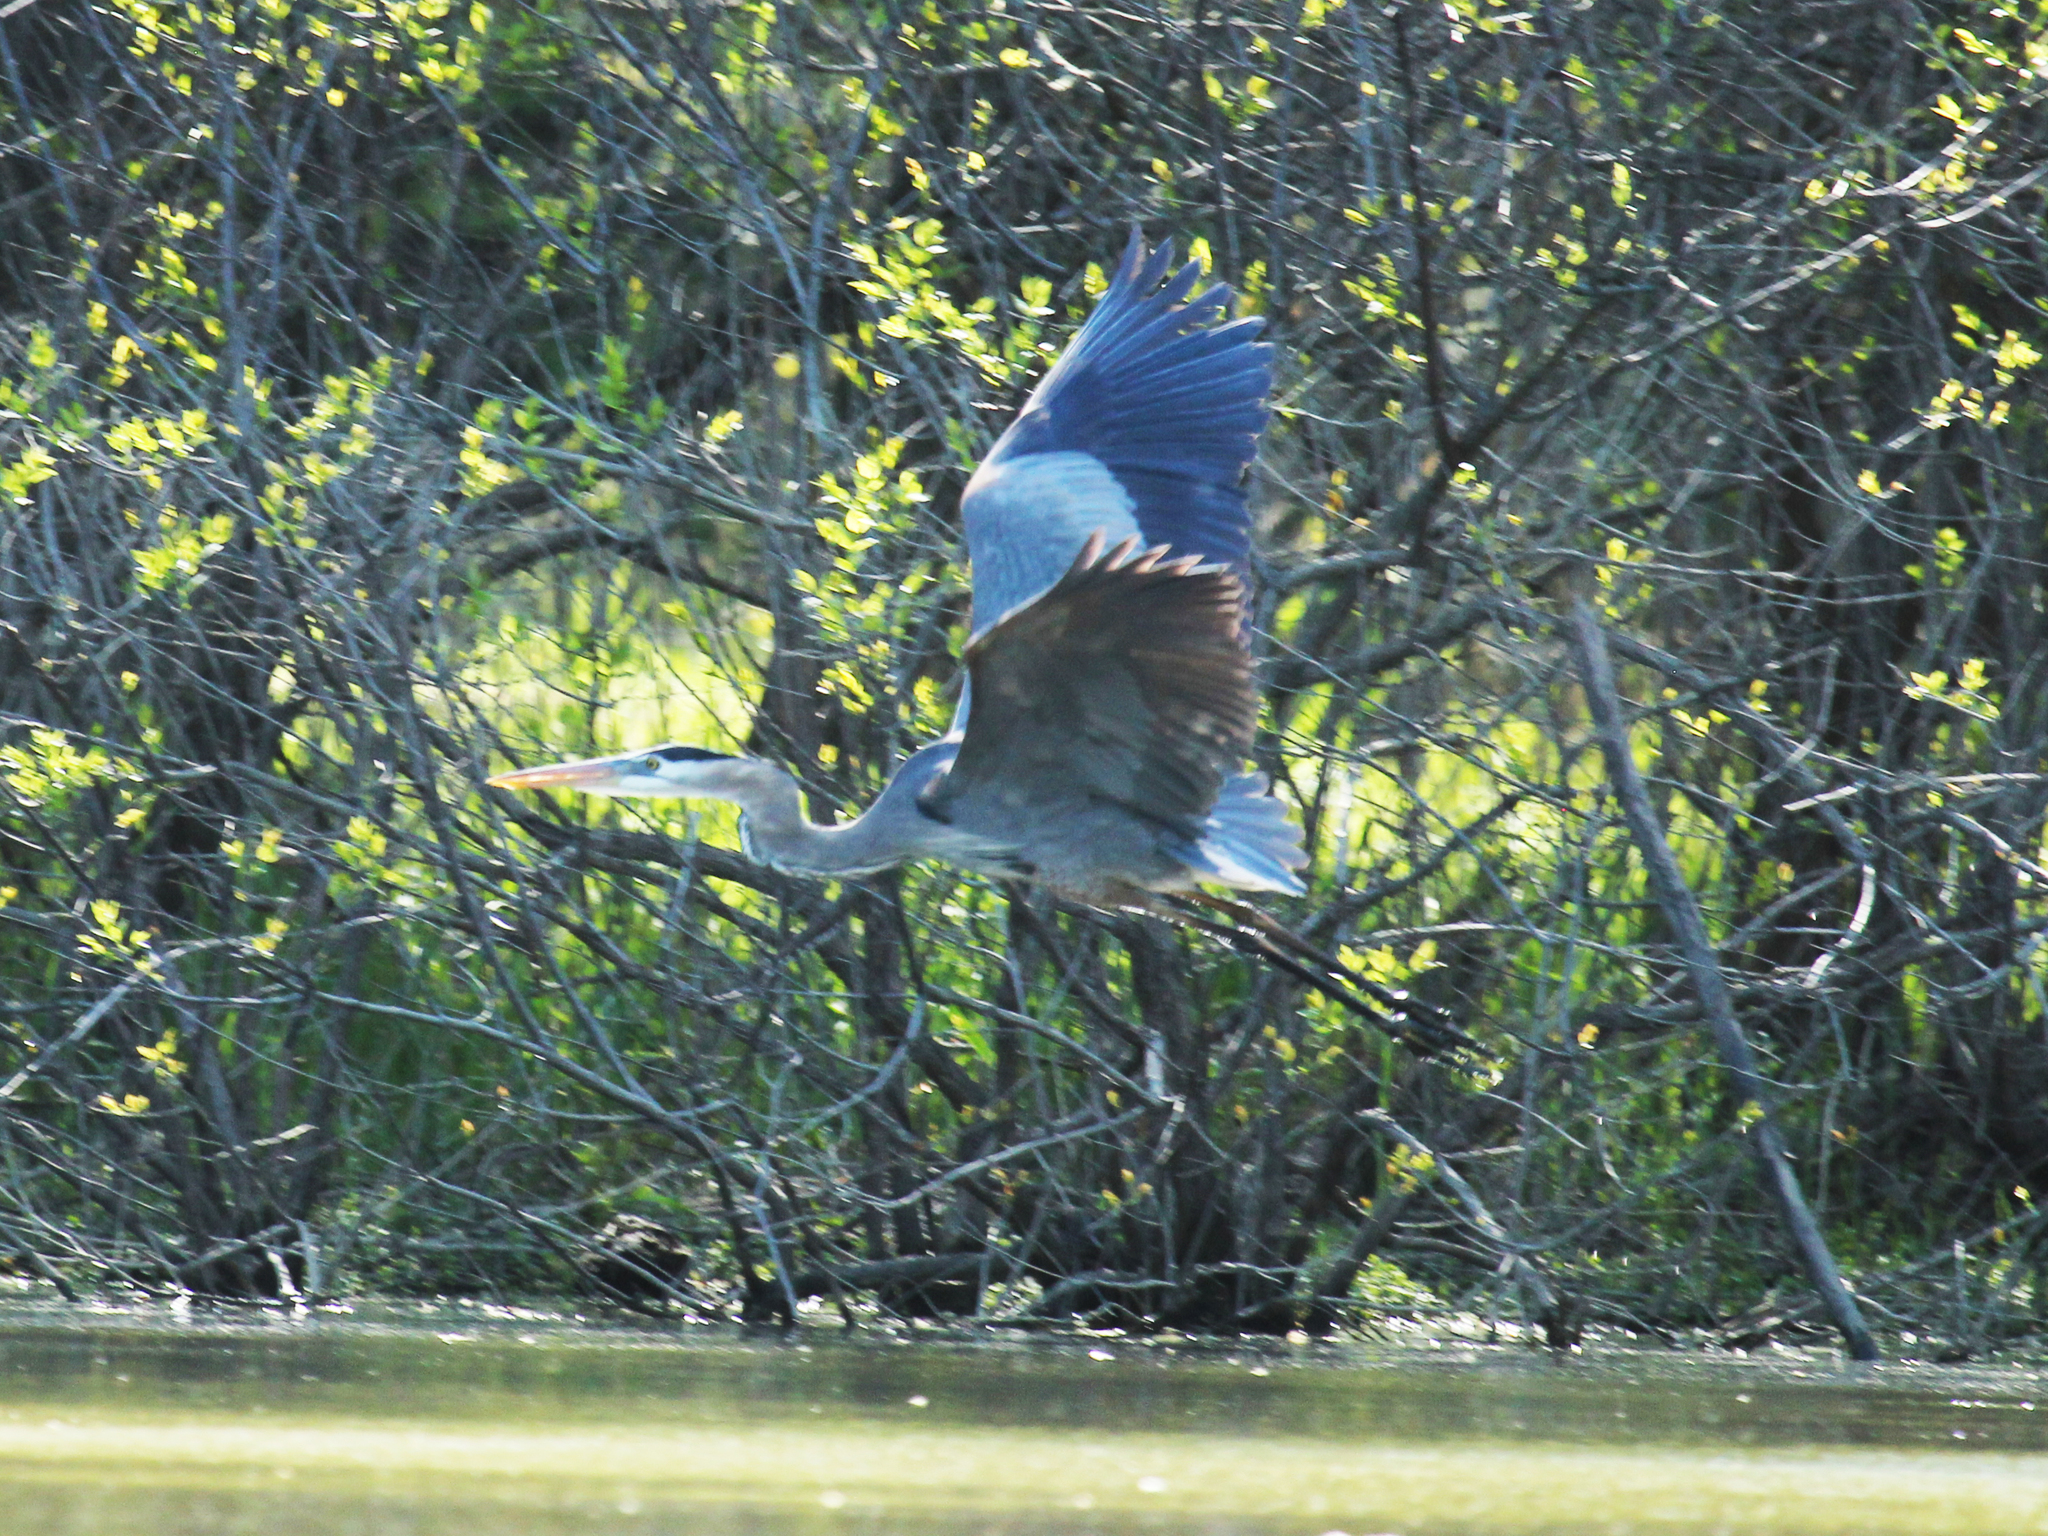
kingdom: Animalia
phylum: Chordata
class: Aves
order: Pelecaniformes
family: Ardeidae
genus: Ardea
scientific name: Ardea herodias
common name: Great blue heron
